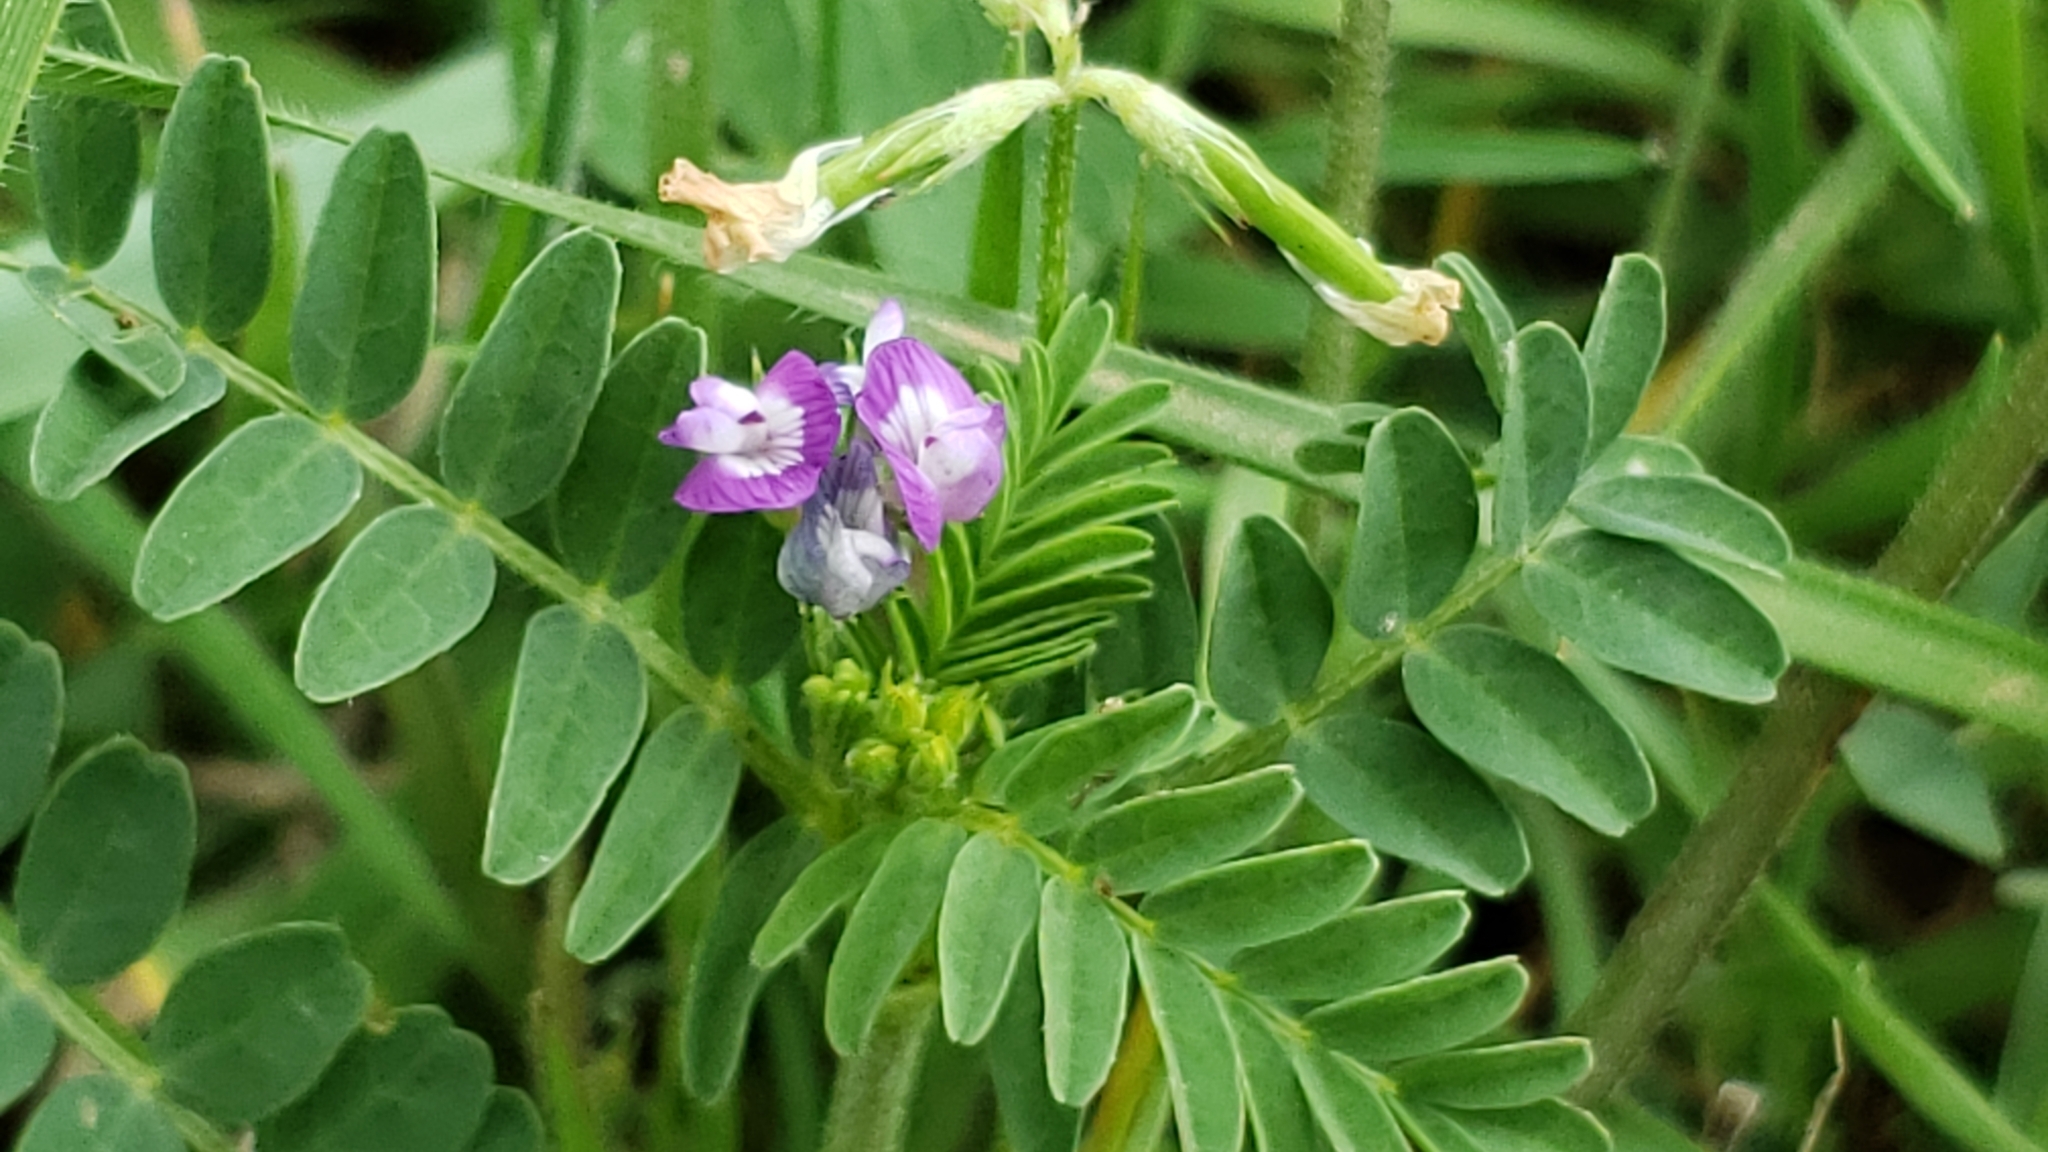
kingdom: Plantae
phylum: Tracheophyta
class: Magnoliopsida
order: Fabales
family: Fabaceae
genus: Astragalus
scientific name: Astragalus nuttallianus
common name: Smallflowered milkvetch
